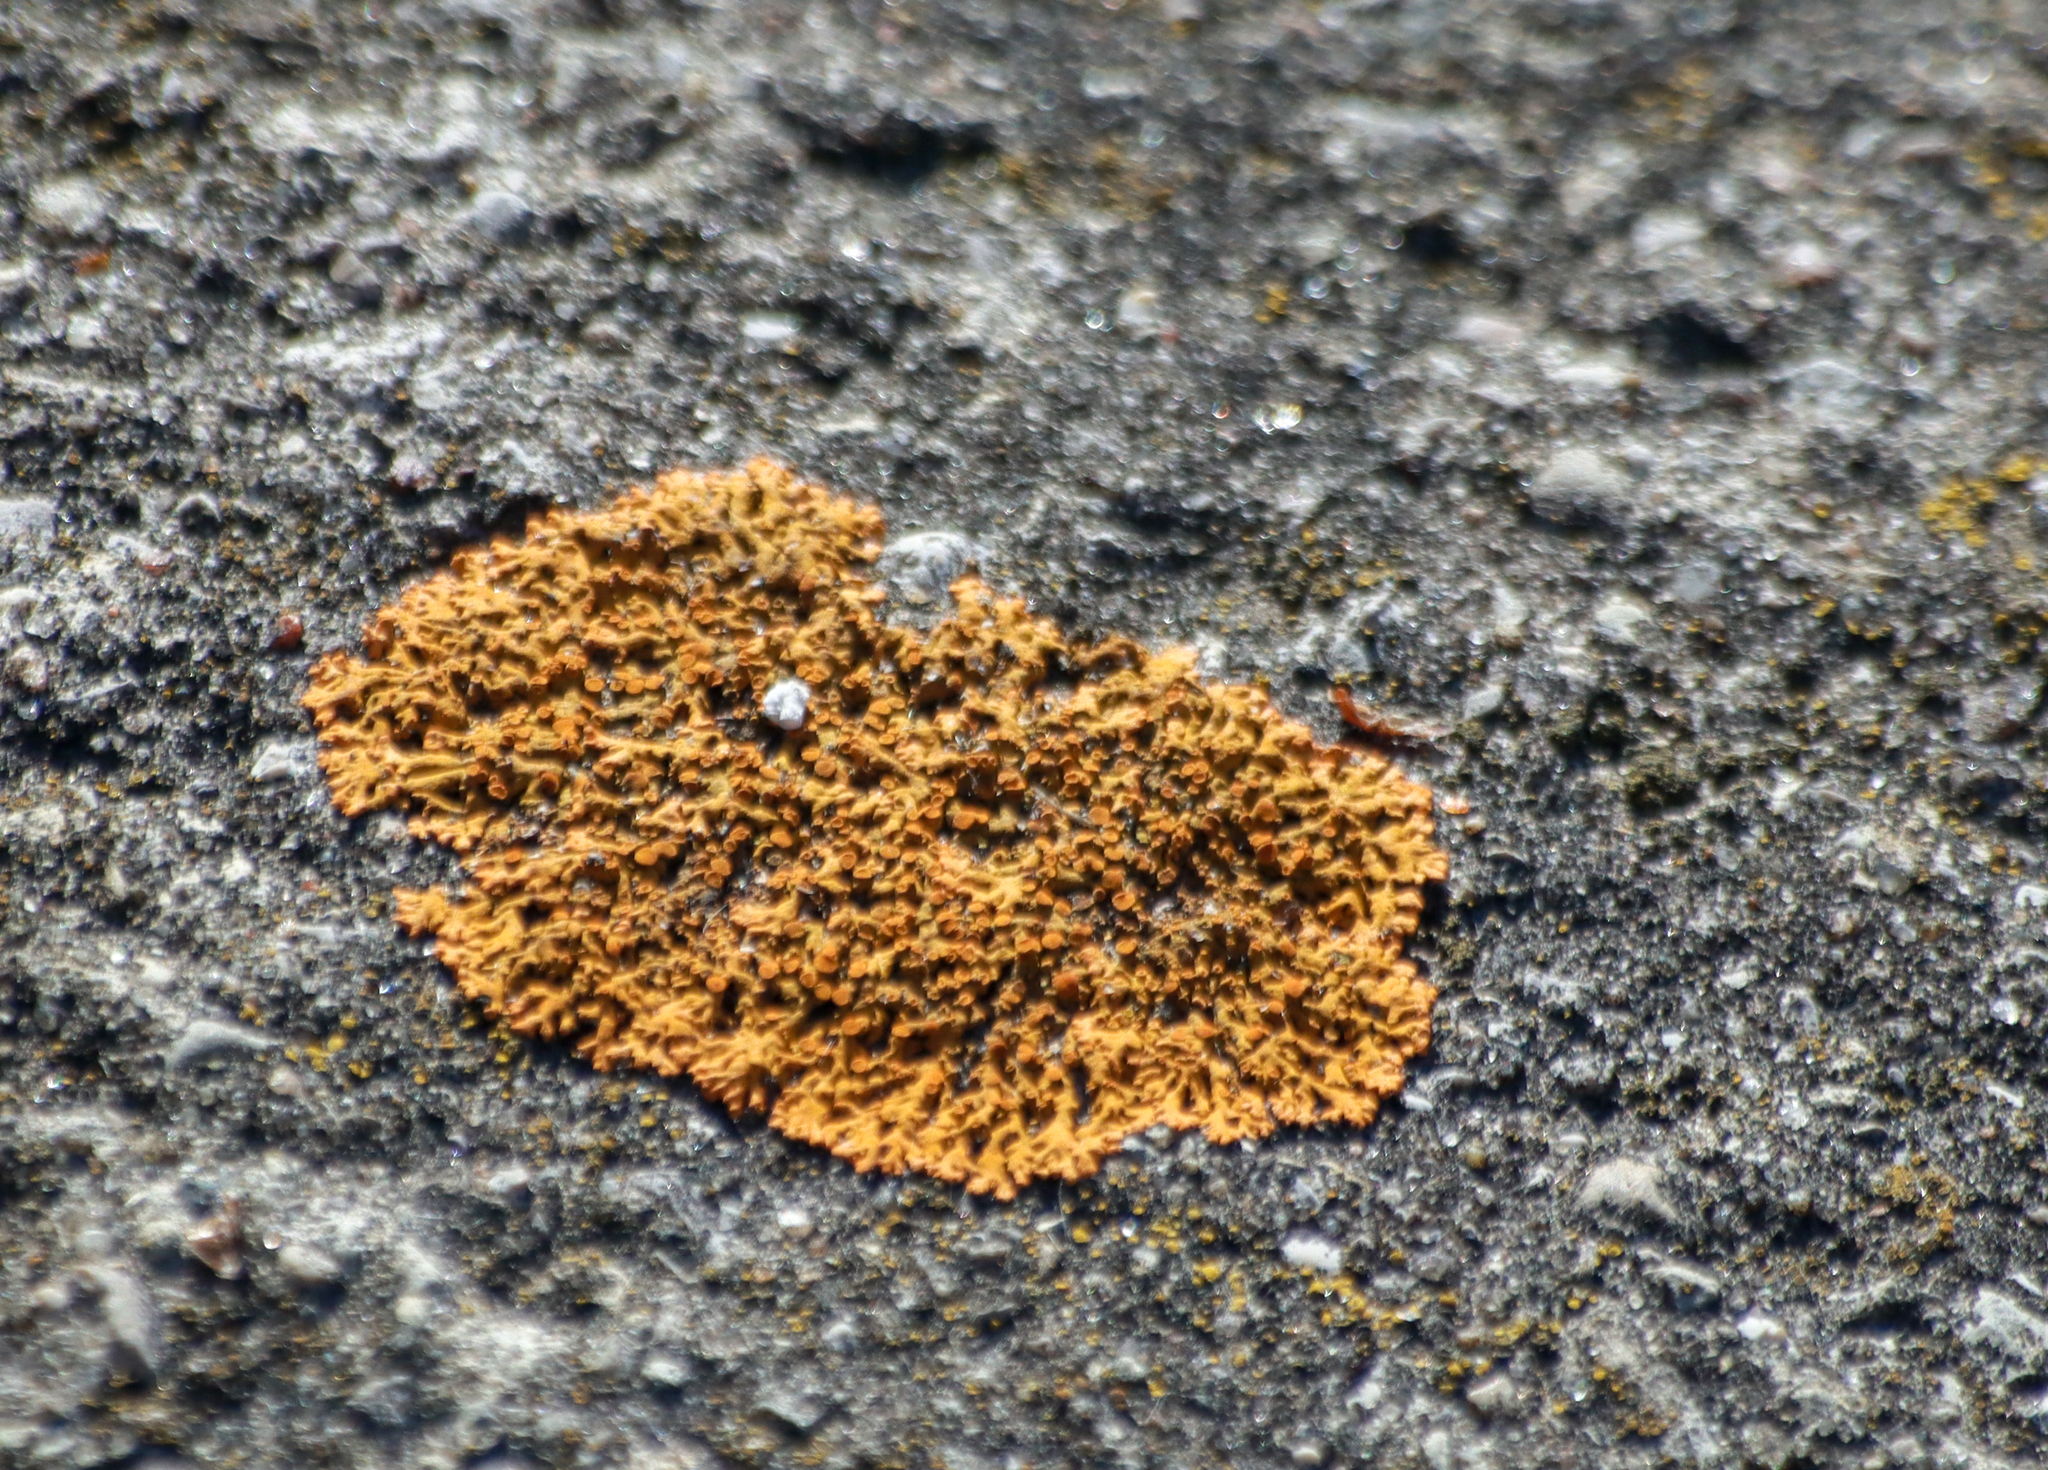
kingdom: Fungi
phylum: Ascomycota
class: Lecanoromycetes
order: Teloschistales
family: Teloschistaceae
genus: Xanthoria
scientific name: Xanthoria elegans
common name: Elegant sunburst lichen
